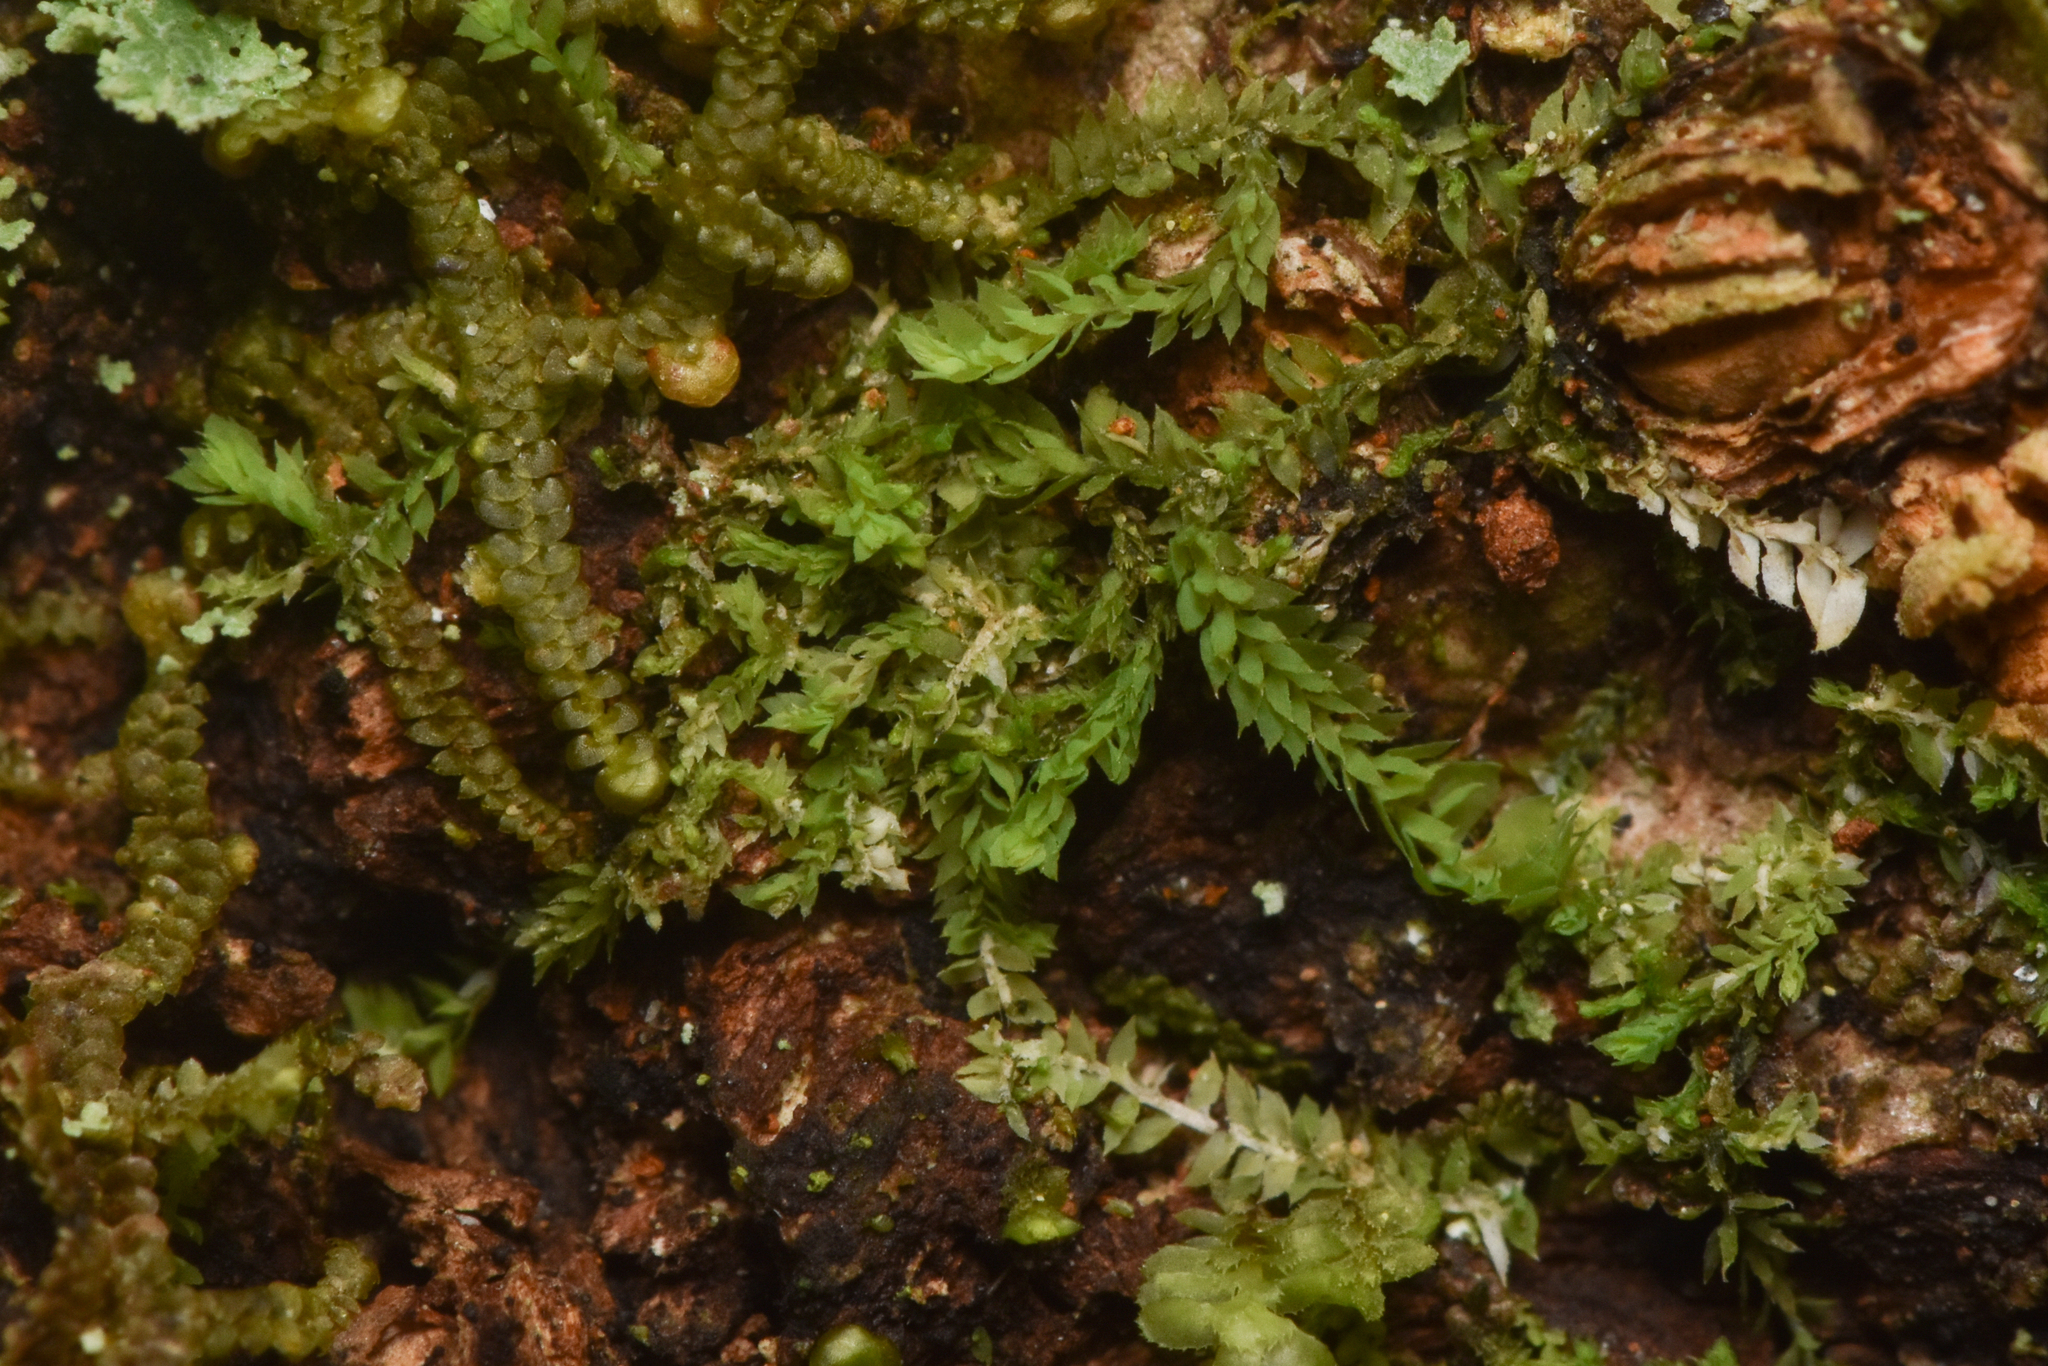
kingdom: Plantae
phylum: Marchantiophyta
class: Jungermanniopsida
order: Jungermanniales
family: Scapaniaceae
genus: Douinia
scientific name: Douinia ovata
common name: Waxy earwort
